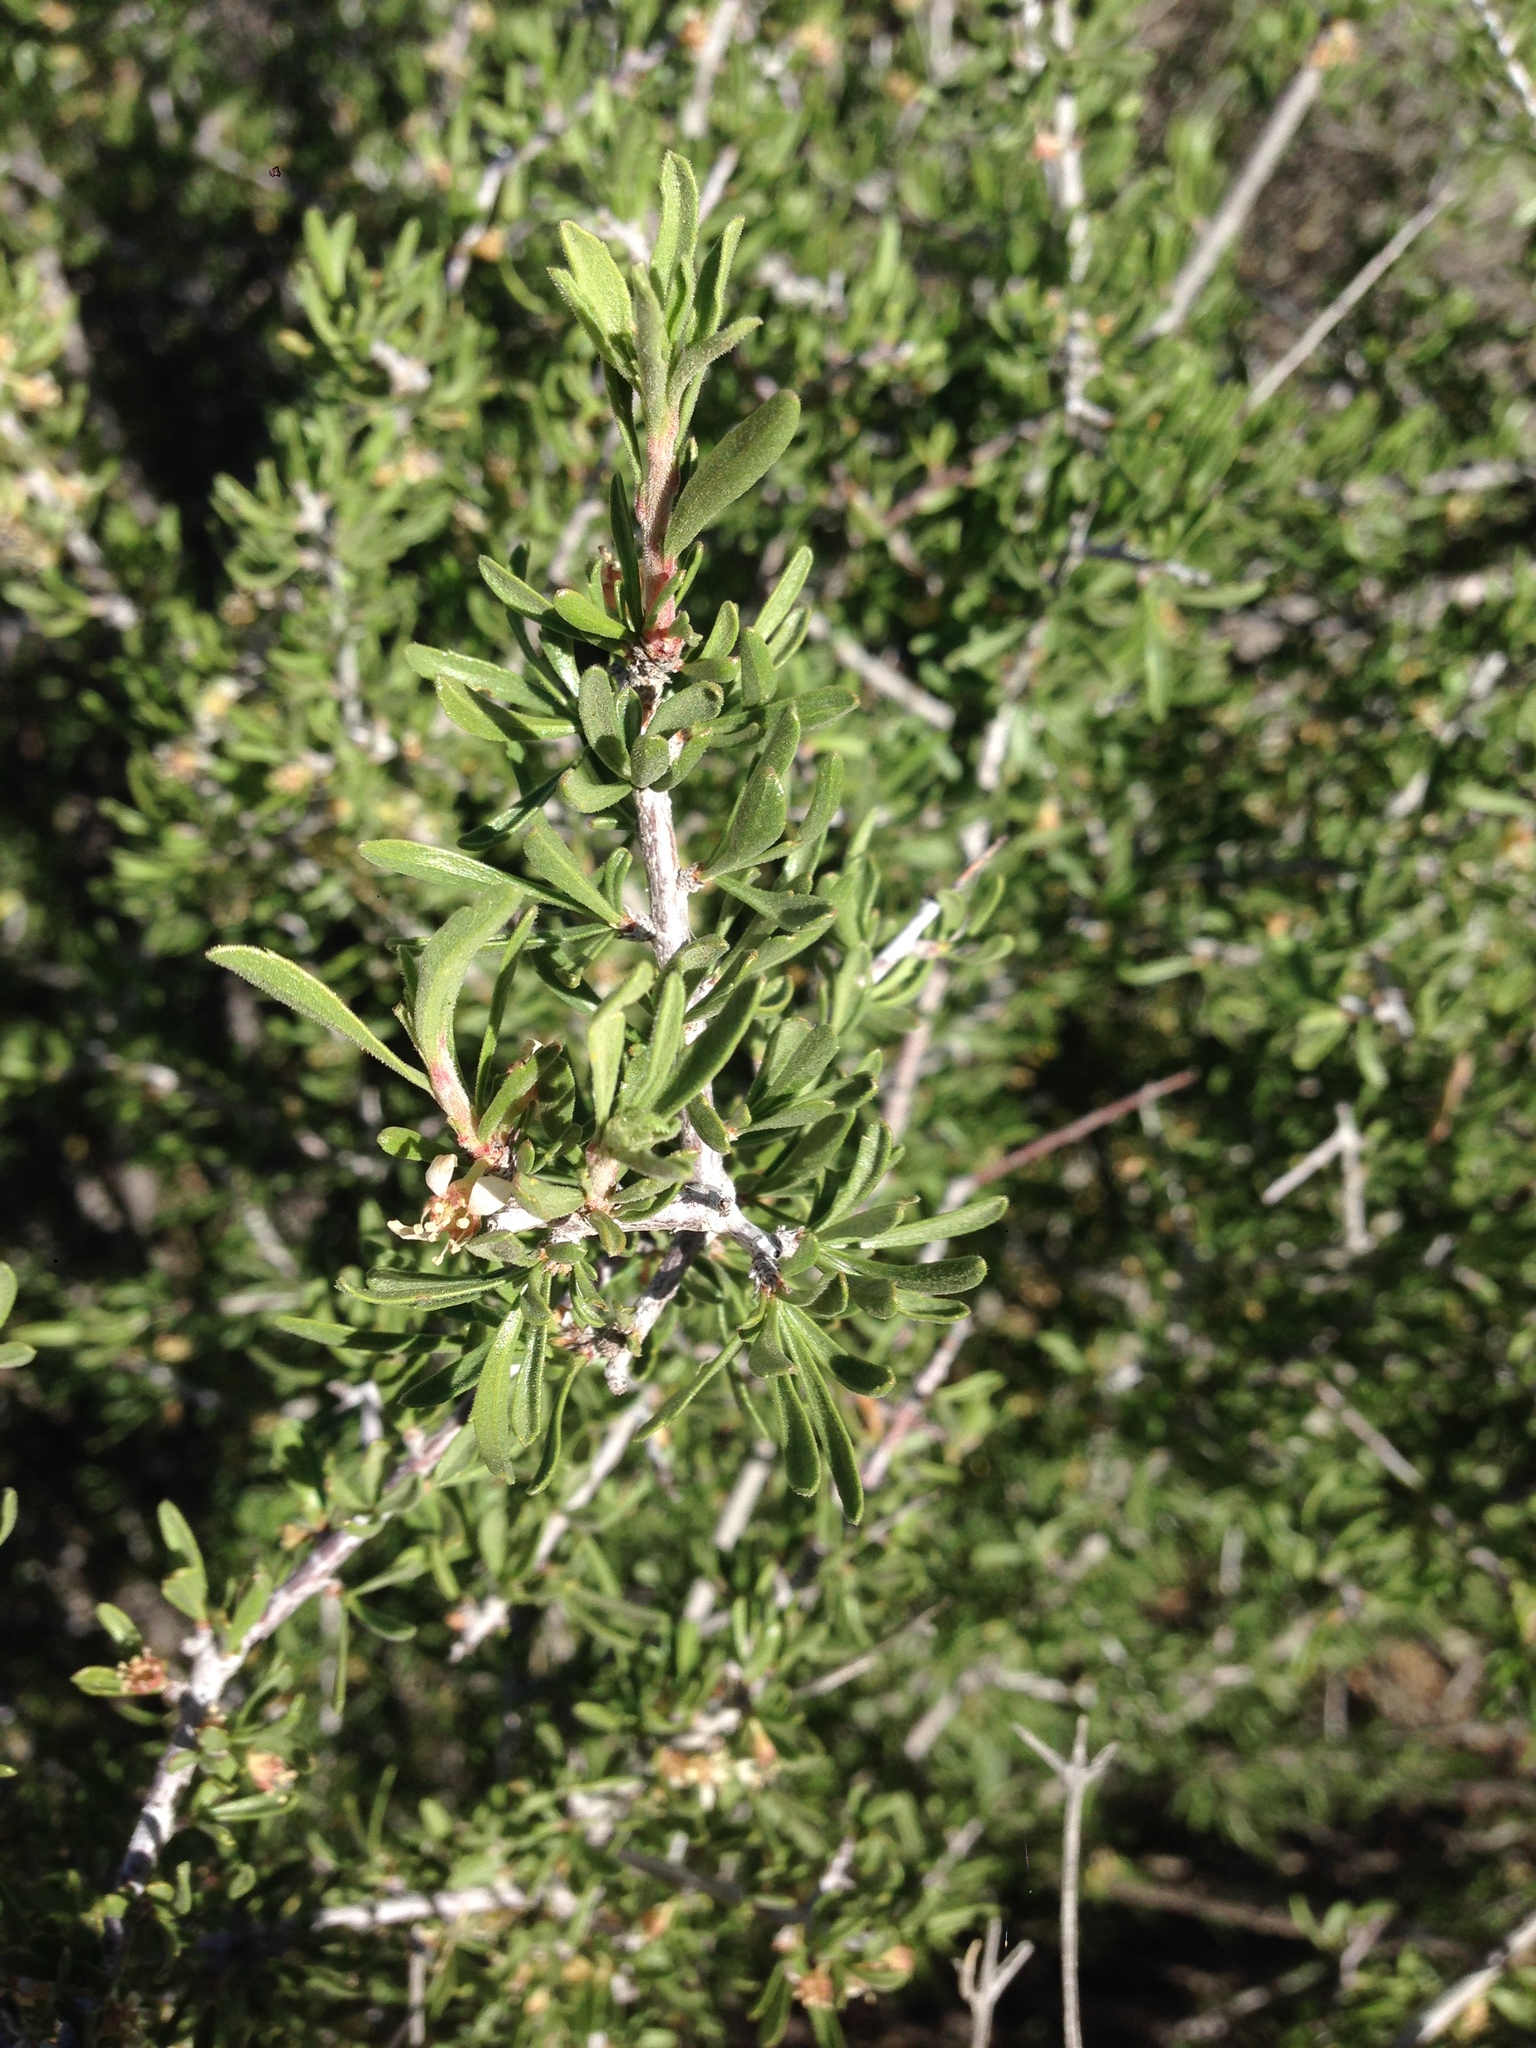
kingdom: Plantae
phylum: Tracheophyta
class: Magnoliopsida
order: Rosales
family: Rosaceae
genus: Prunus
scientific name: Prunus fasciculata
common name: Desert almond
